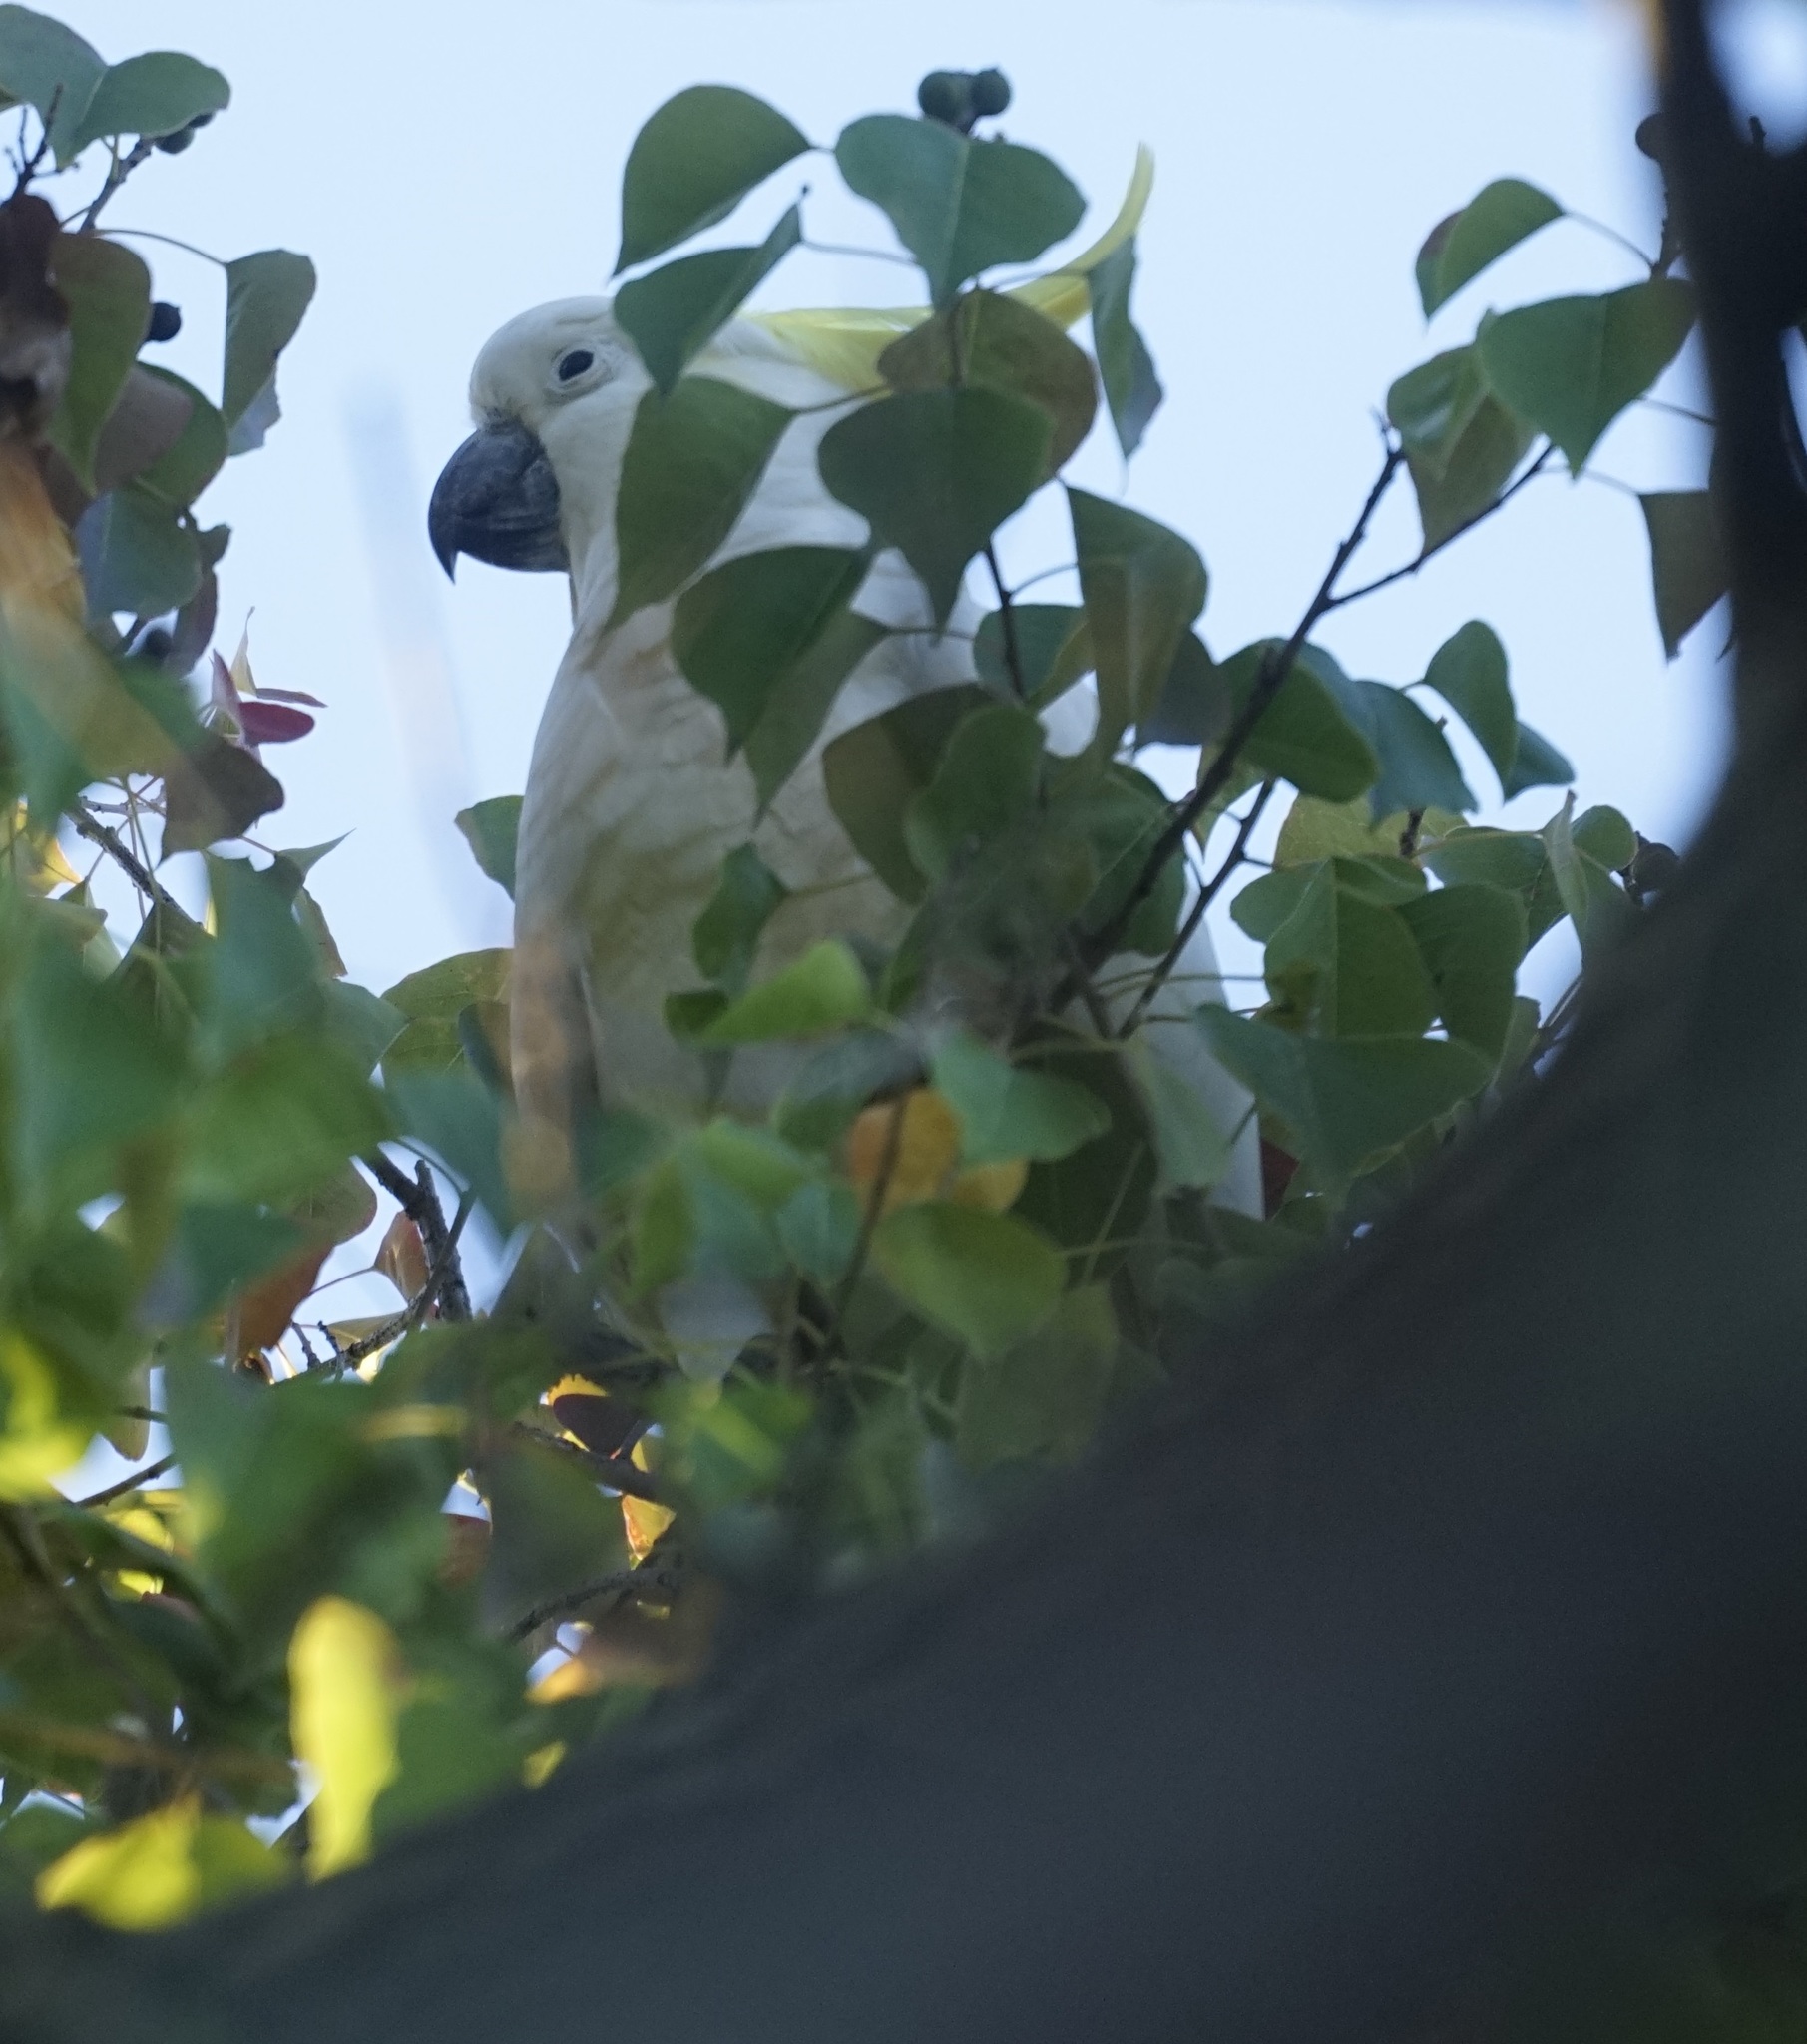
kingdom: Animalia
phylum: Chordata
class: Aves
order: Psittaciformes
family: Psittacidae
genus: Cacatua
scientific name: Cacatua galerita
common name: Sulphur-crested cockatoo
